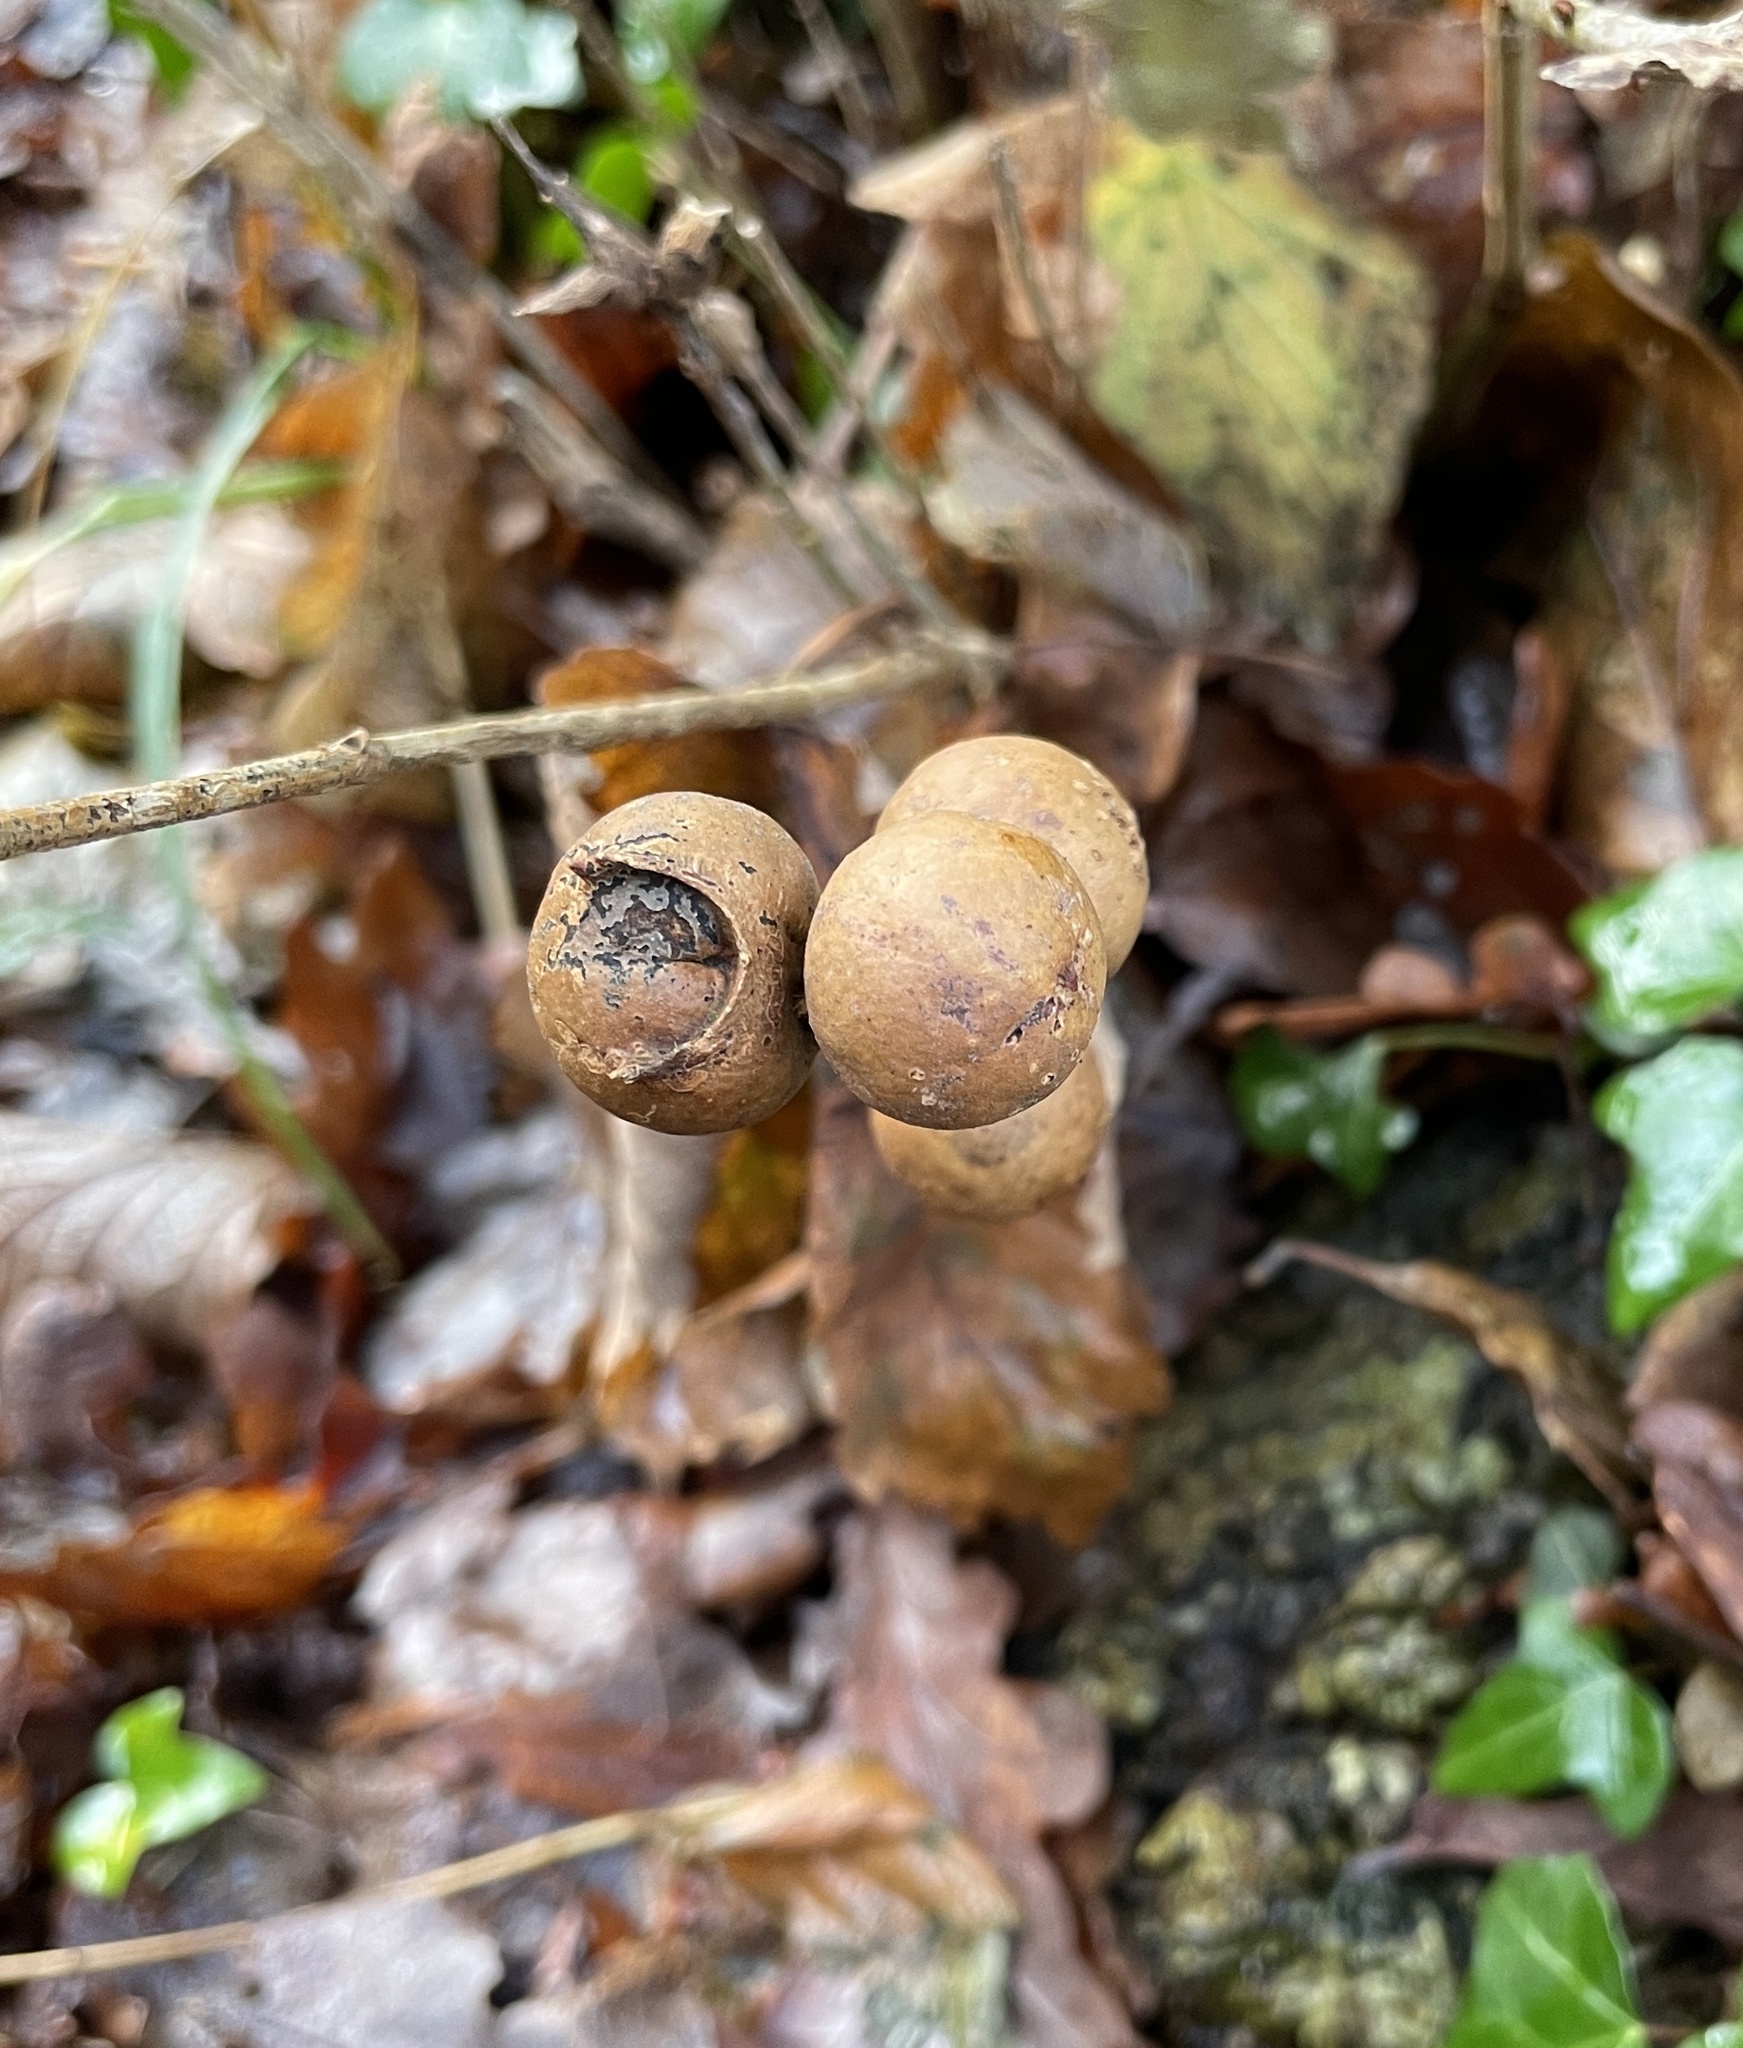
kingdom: Animalia
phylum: Arthropoda
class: Insecta
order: Hymenoptera
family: Cynipidae
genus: Andricus
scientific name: Andricus kollari
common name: Marble gall
